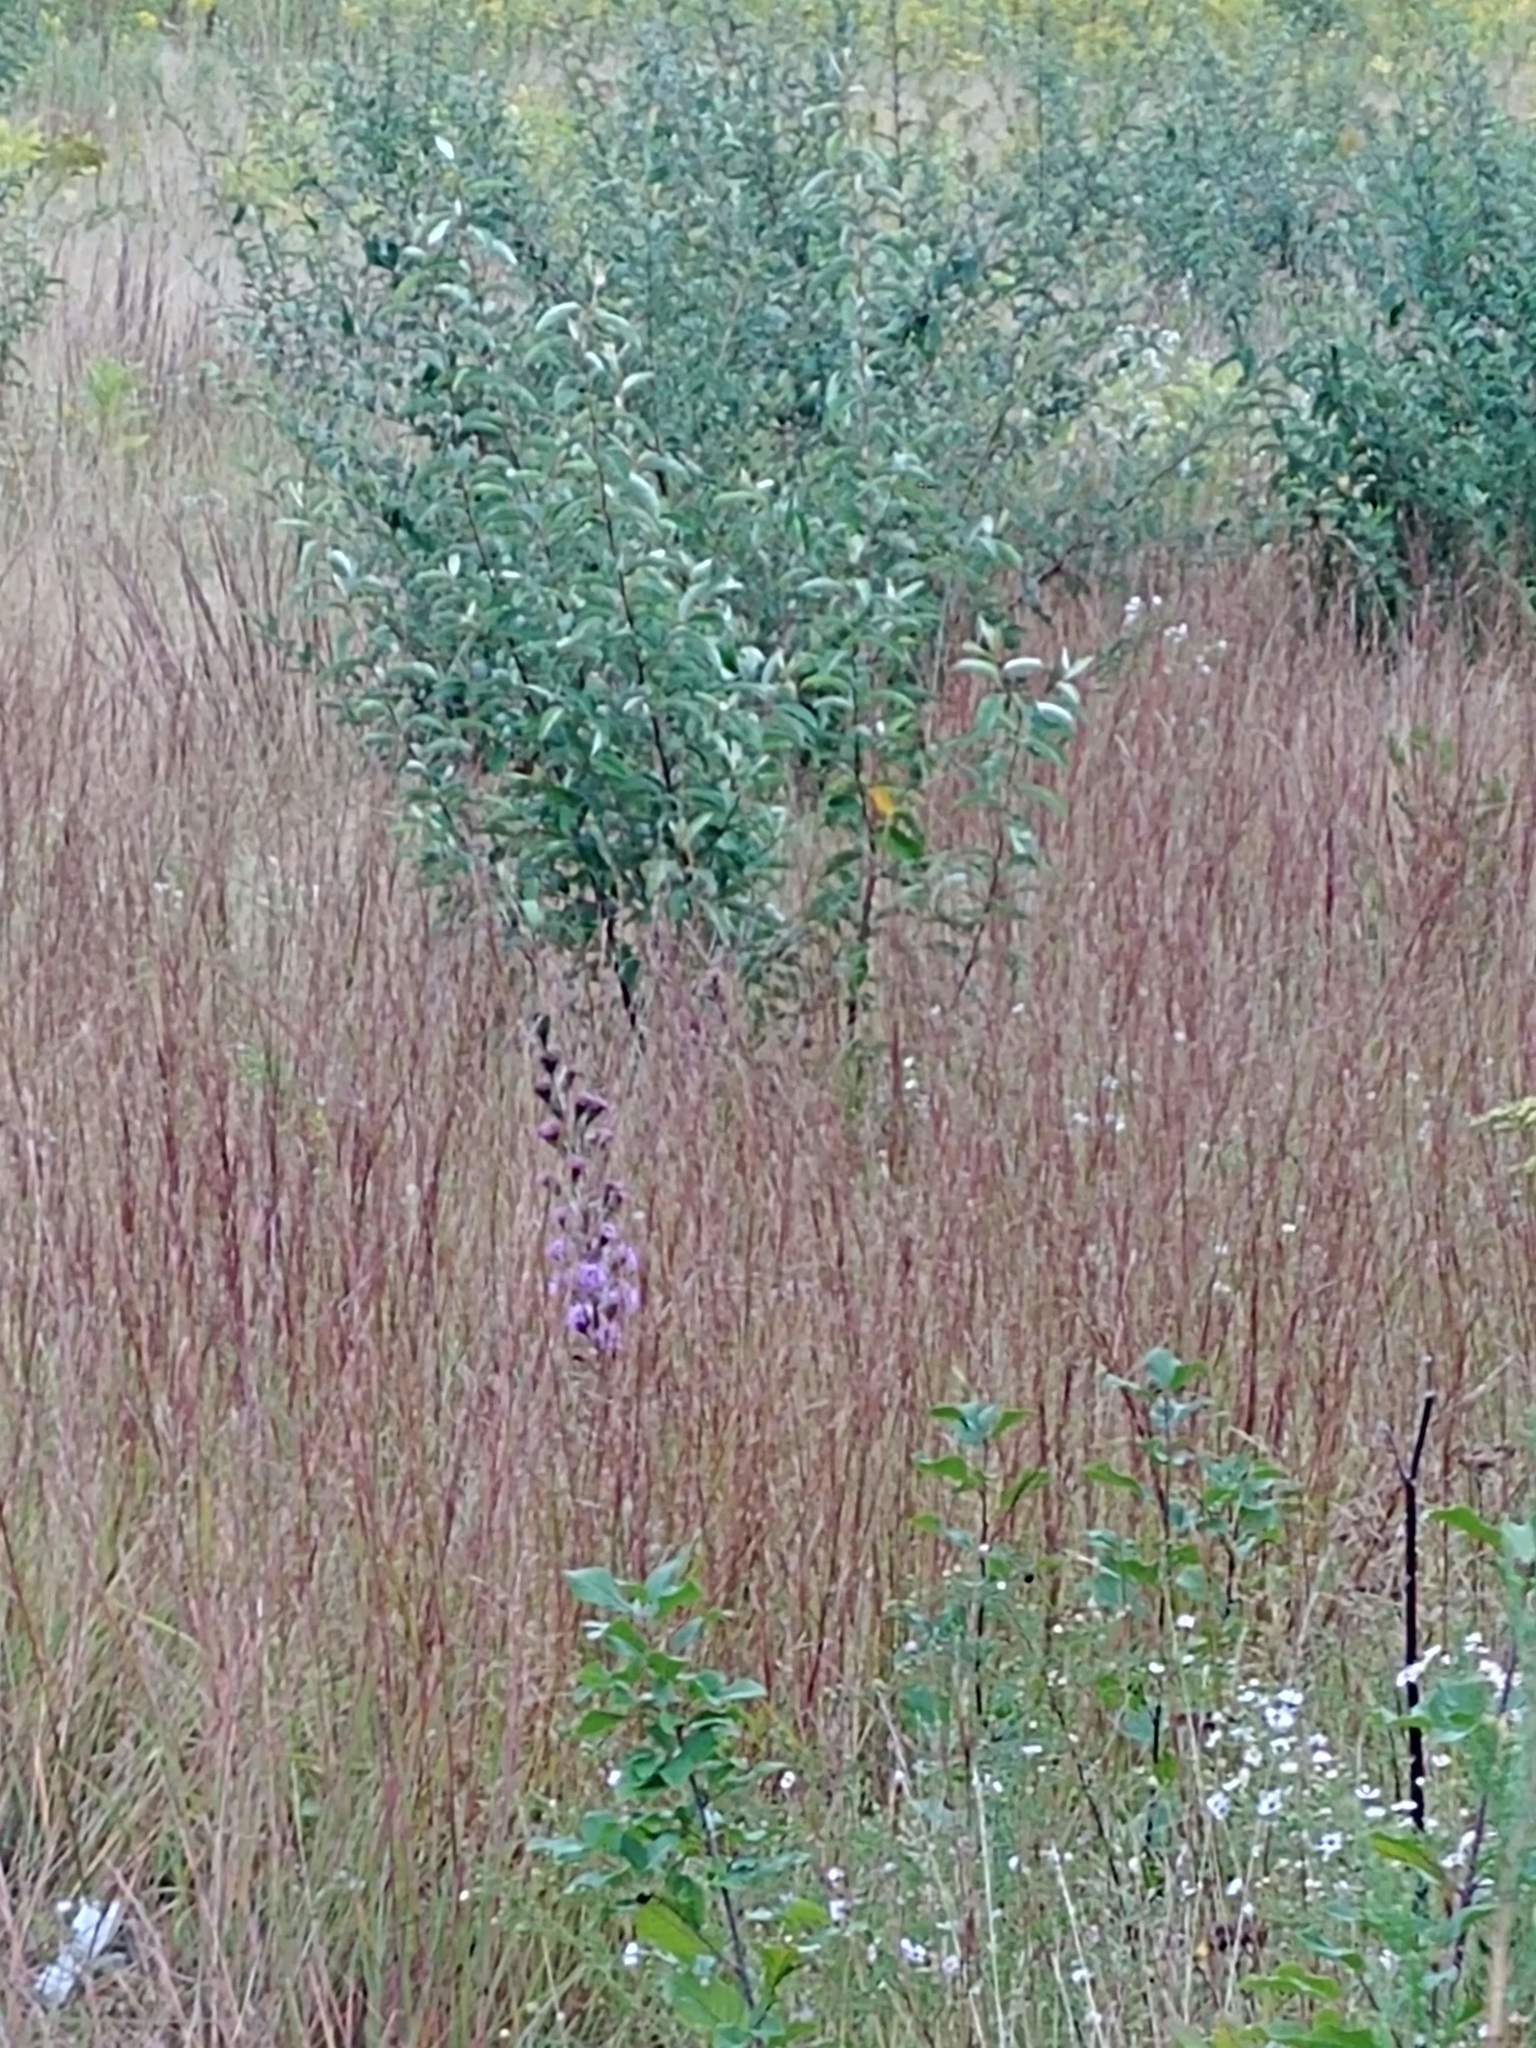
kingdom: Plantae
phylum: Tracheophyta
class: Magnoliopsida
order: Asterales
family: Asteraceae
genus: Liatris
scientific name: Liatris scariosa
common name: Northern gayfeather
